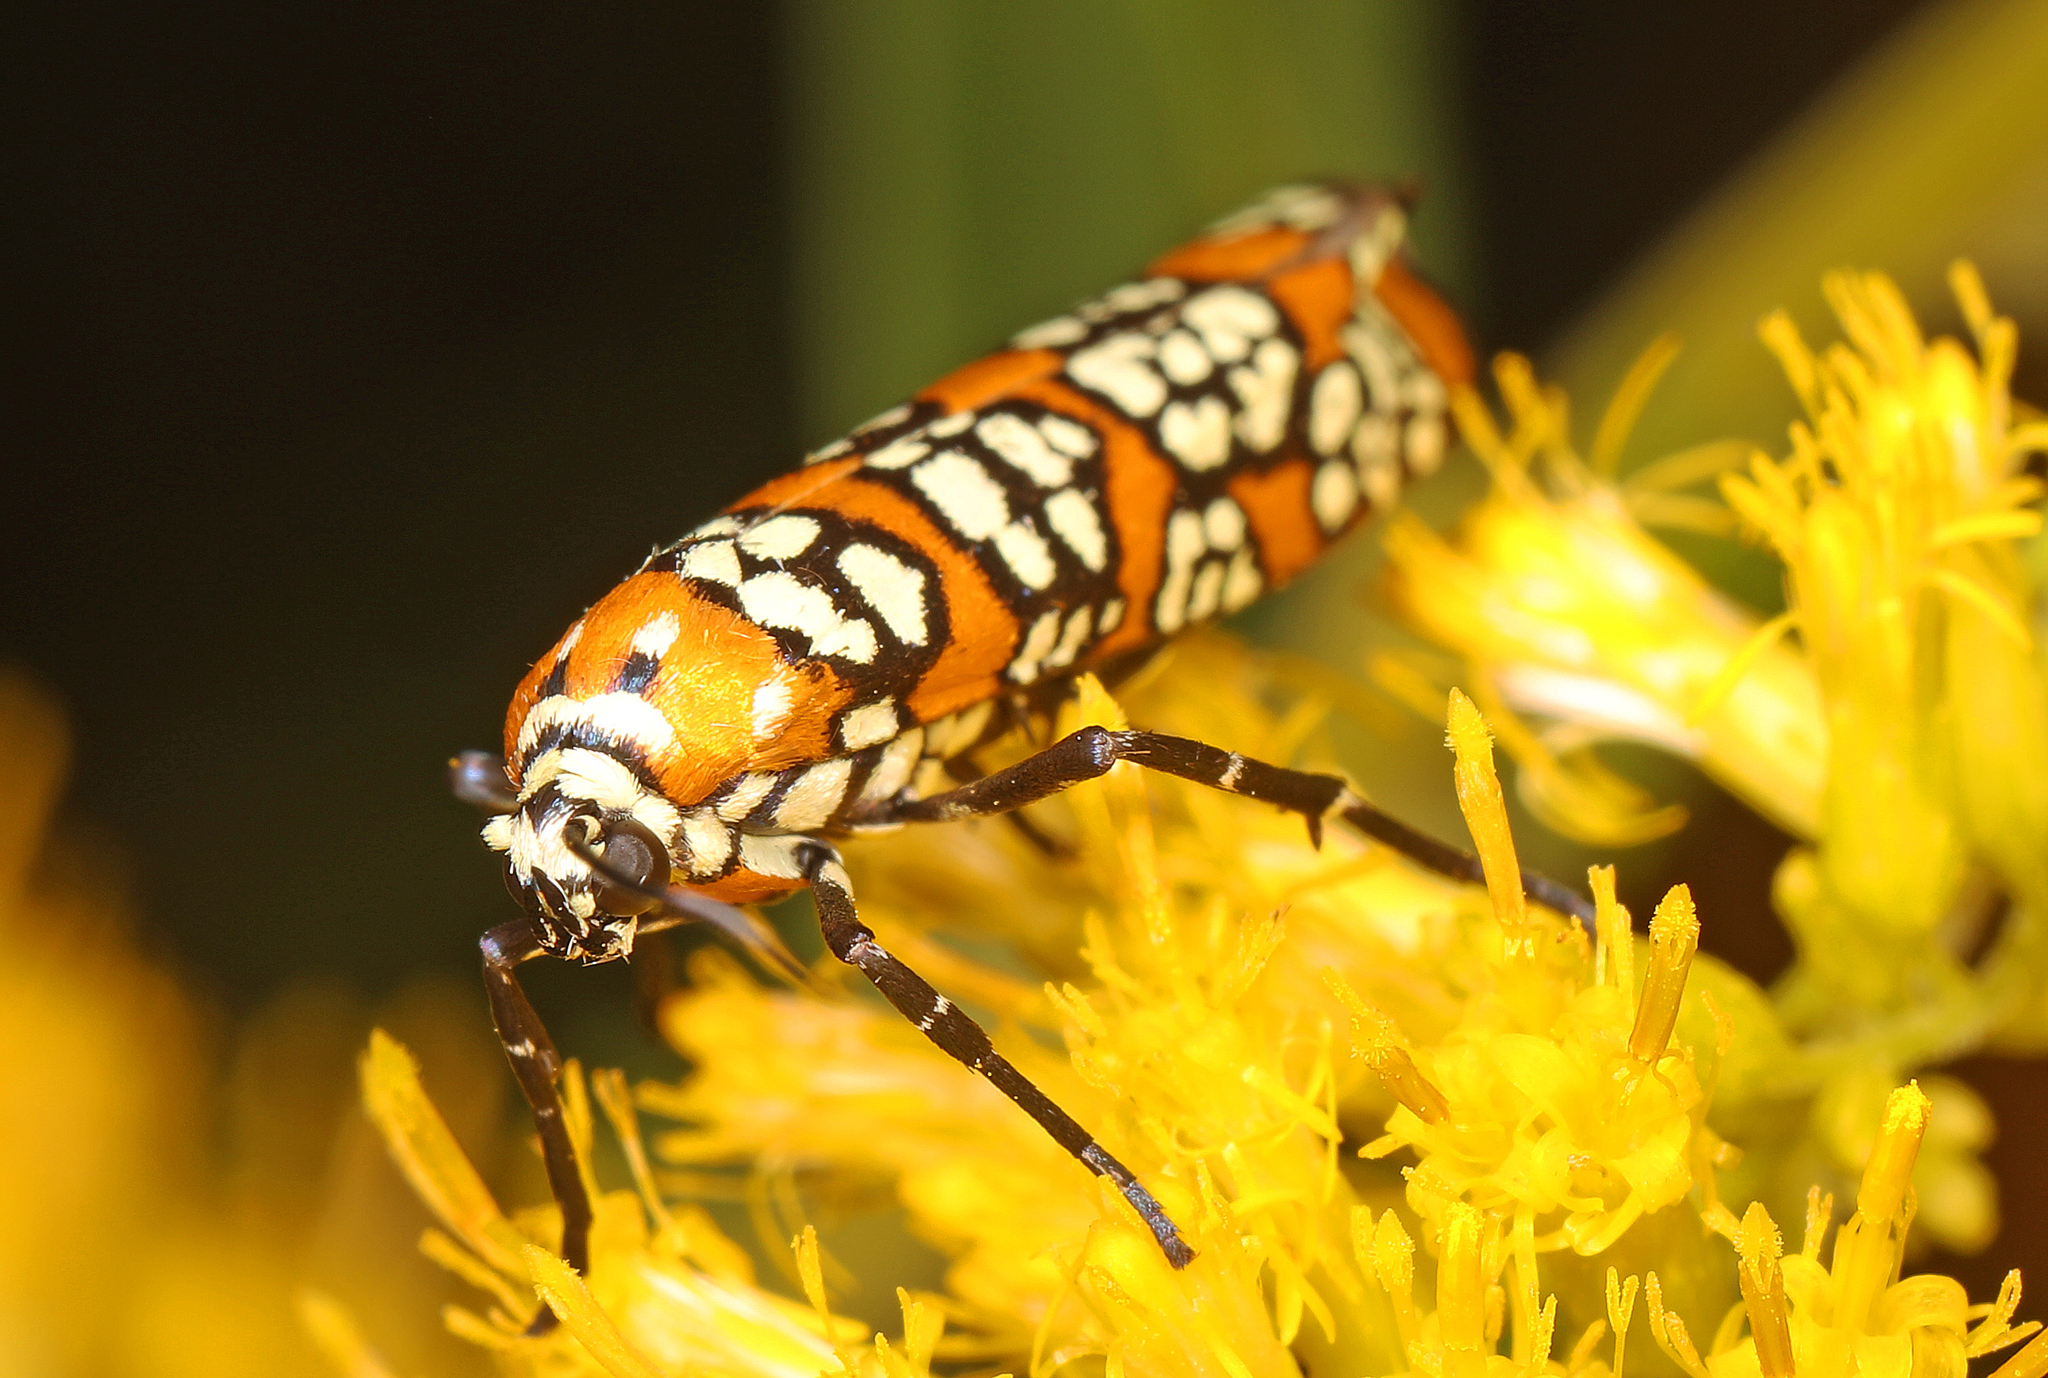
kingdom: Animalia
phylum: Arthropoda
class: Insecta
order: Lepidoptera
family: Attevidae
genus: Atteva
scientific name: Atteva punctella
